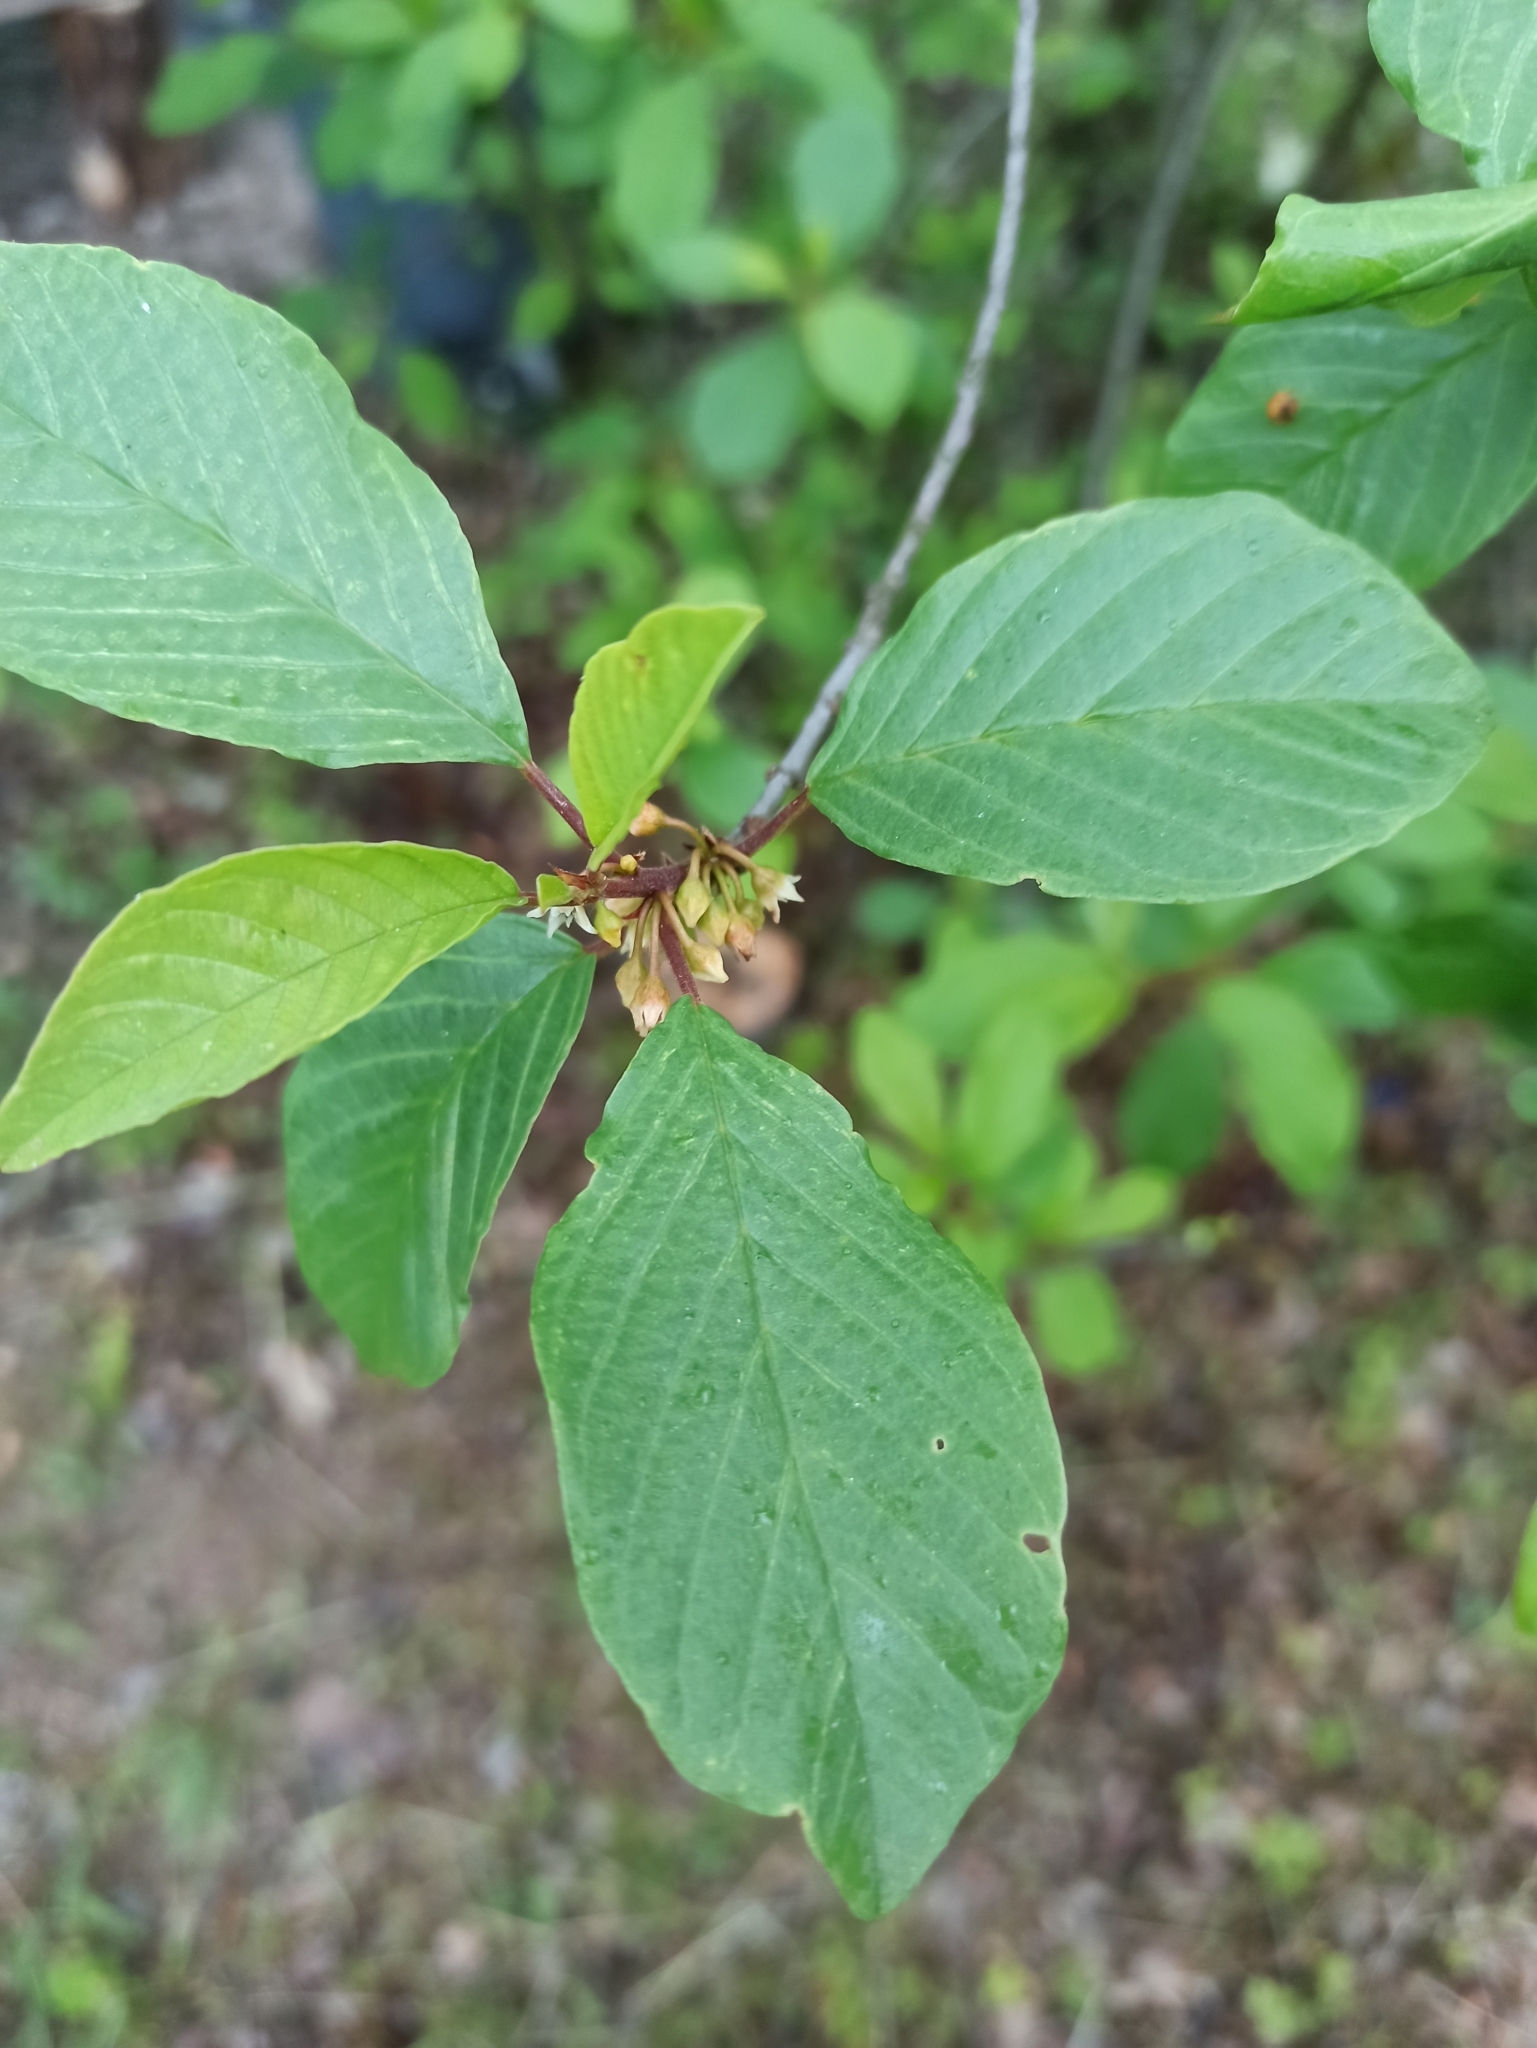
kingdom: Plantae
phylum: Tracheophyta
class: Magnoliopsida
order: Rosales
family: Rhamnaceae
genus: Frangula
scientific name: Frangula alnus
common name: Alder buckthorn
